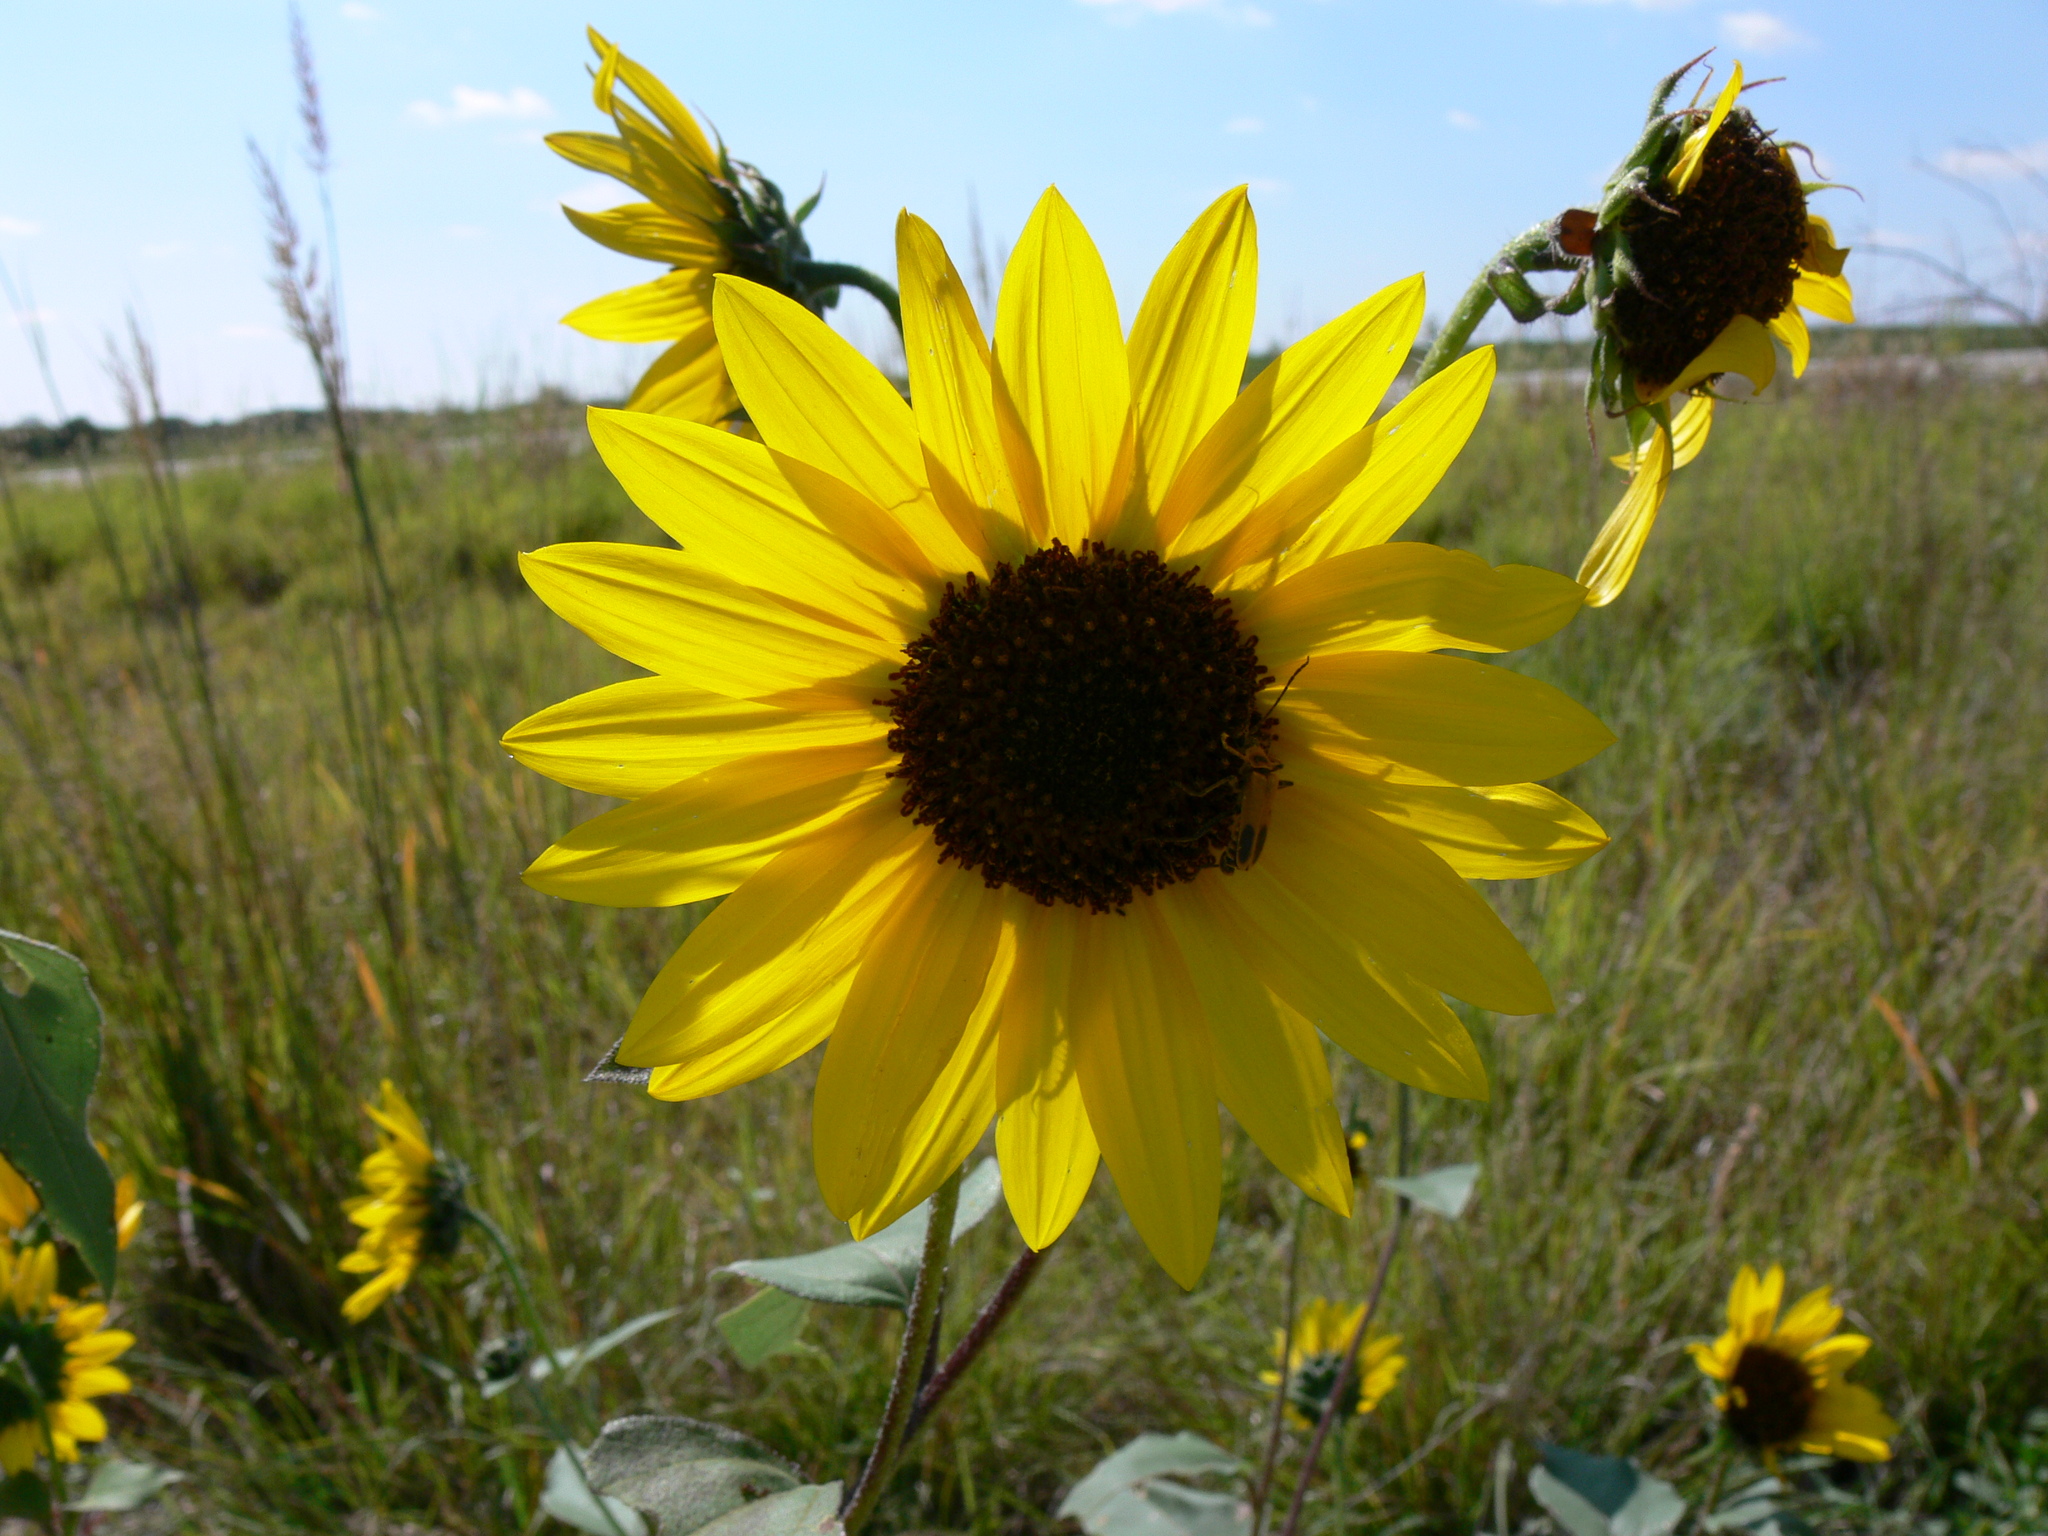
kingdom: Plantae
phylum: Tracheophyta
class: Magnoliopsida
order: Asterales
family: Asteraceae
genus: Helianthus
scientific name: Helianthus annuus
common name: Sunflower
